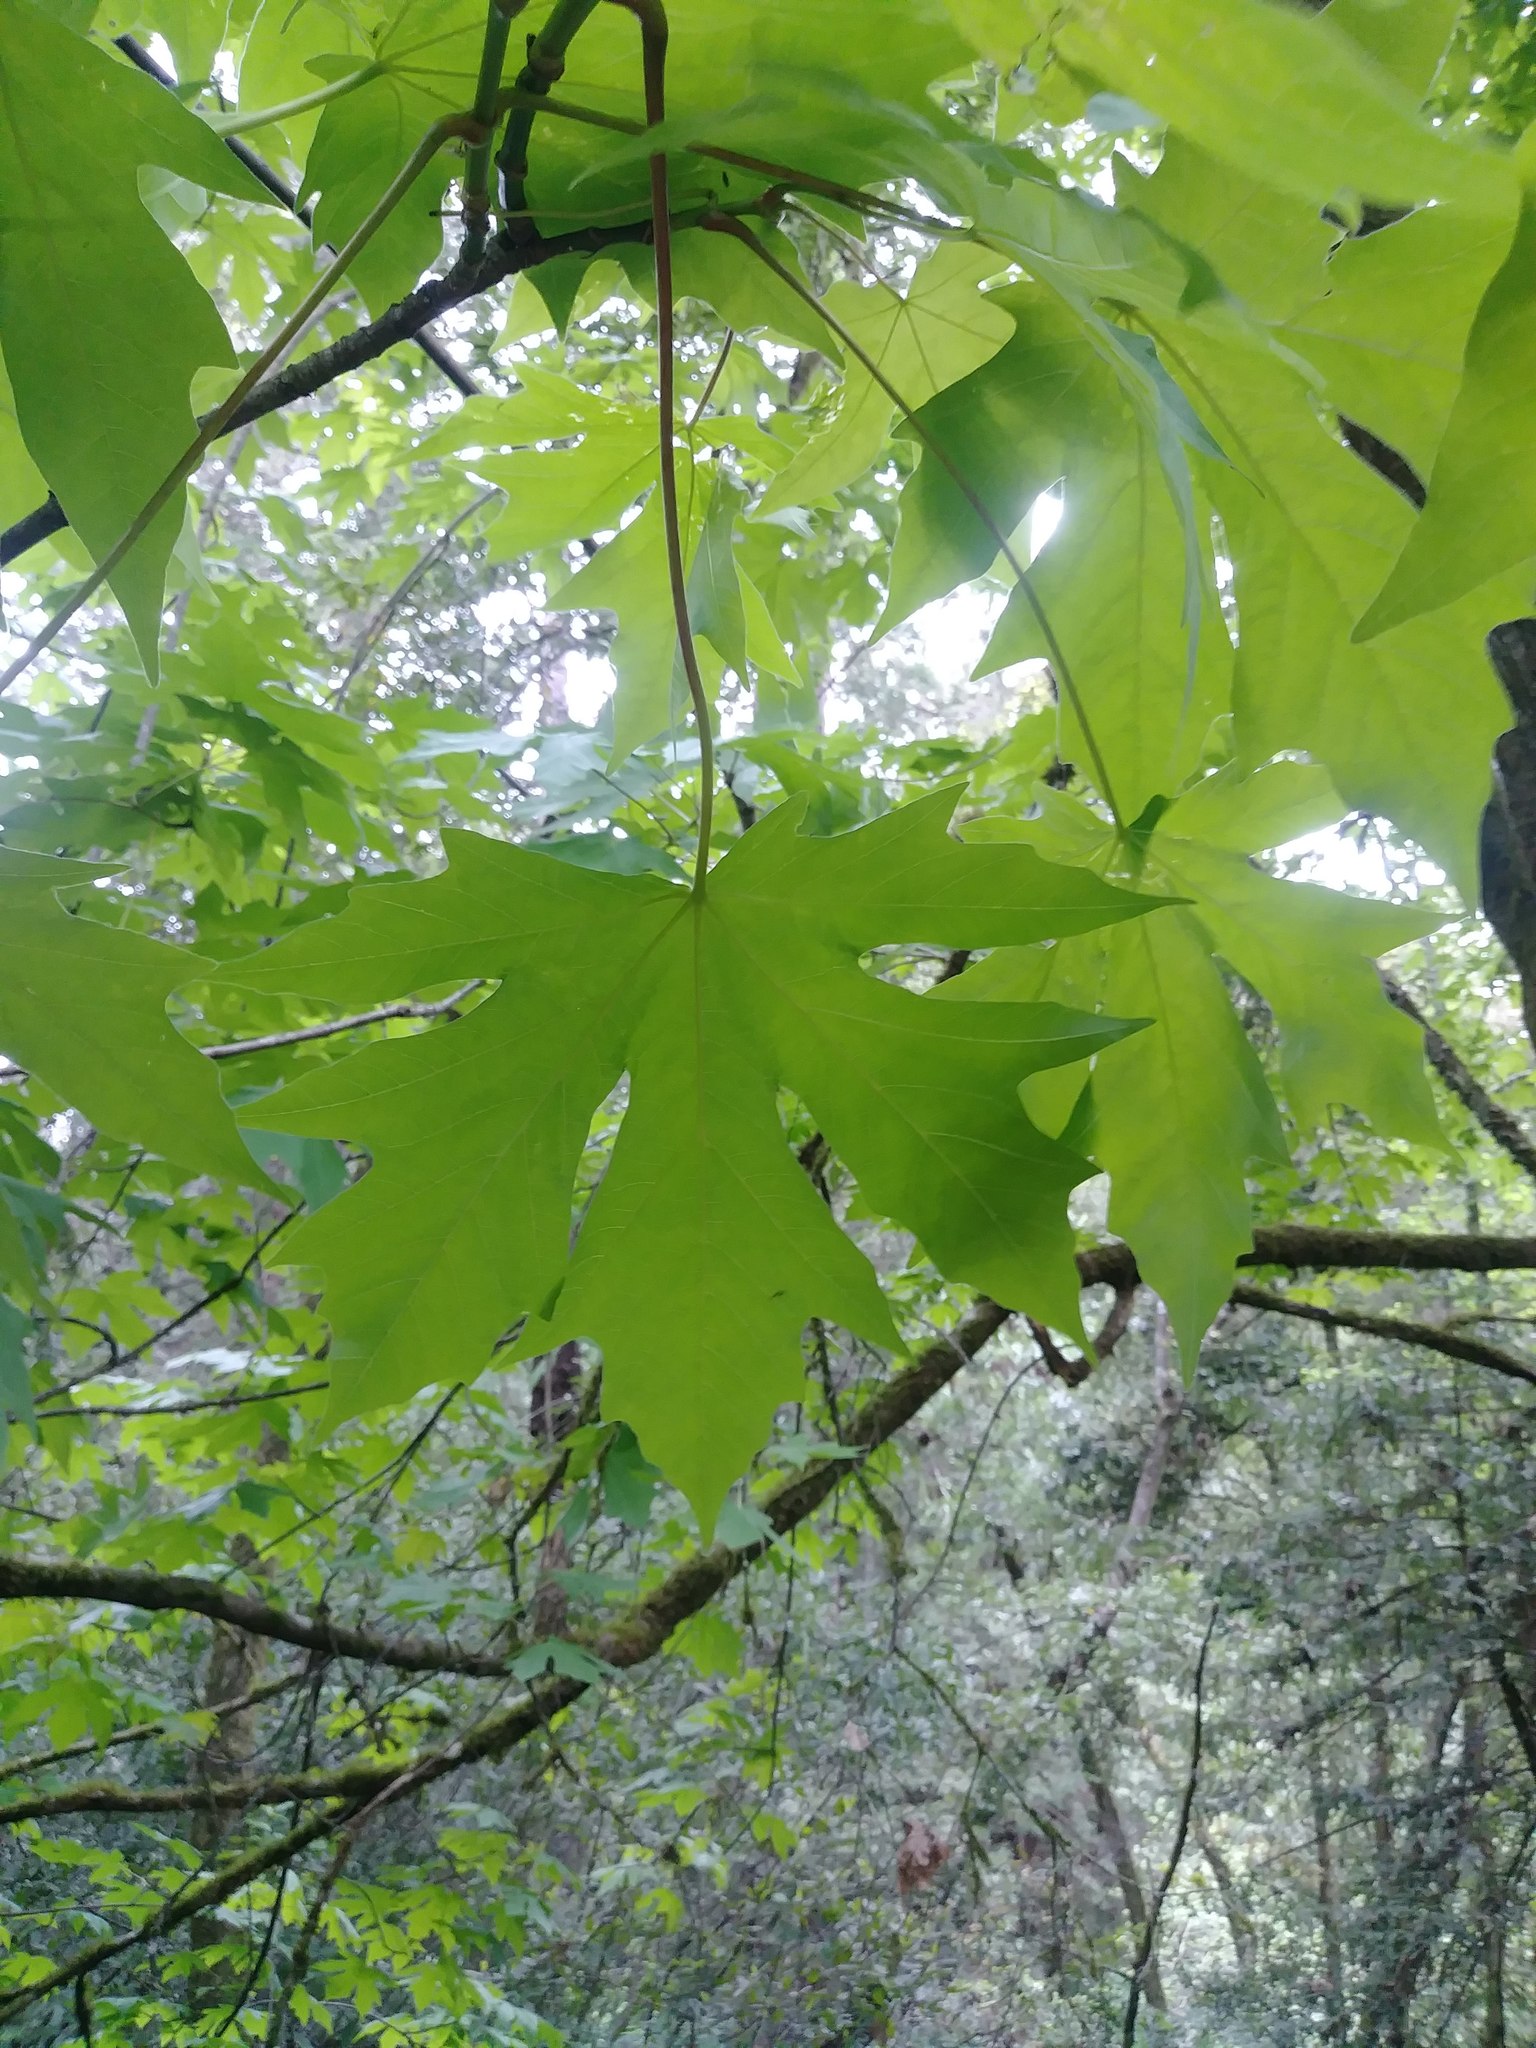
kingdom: Plantae
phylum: Tracheophyta
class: Magnoliopsida
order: Sapindales
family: Sapindaceae
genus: Acer
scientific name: Acer macrophyllum
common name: Oregon maple
